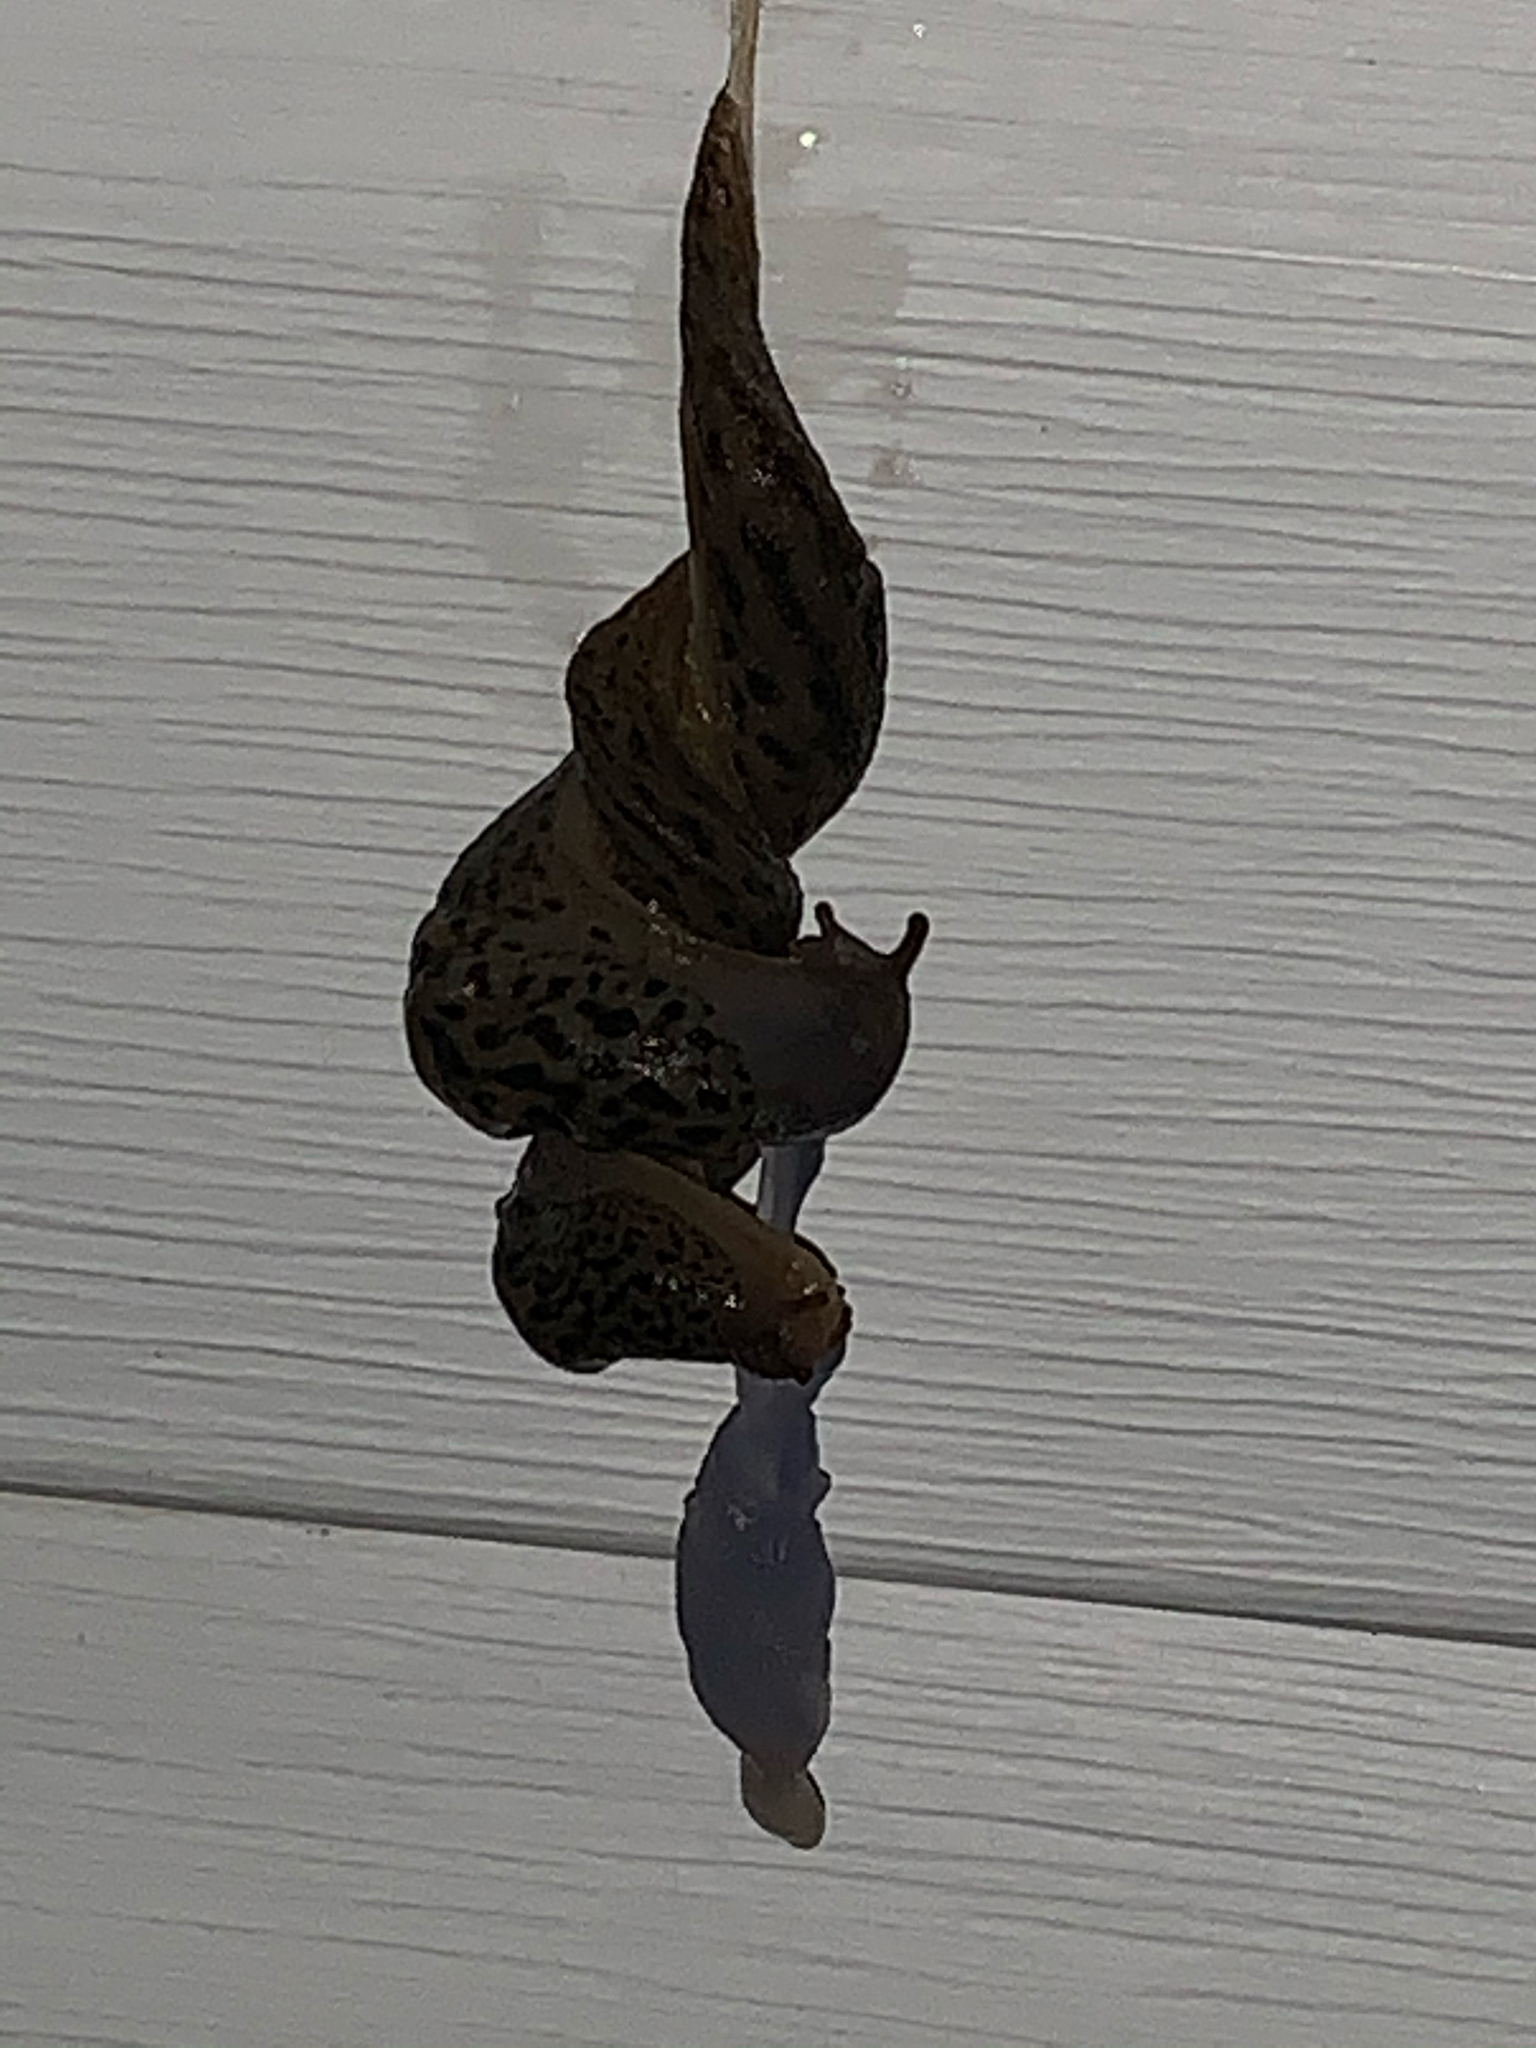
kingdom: Animalia
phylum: Mollusca
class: Gastropoda
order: Stylommatophora
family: Limacidae
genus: Limax
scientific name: Limax maximus
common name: Great grey slug
